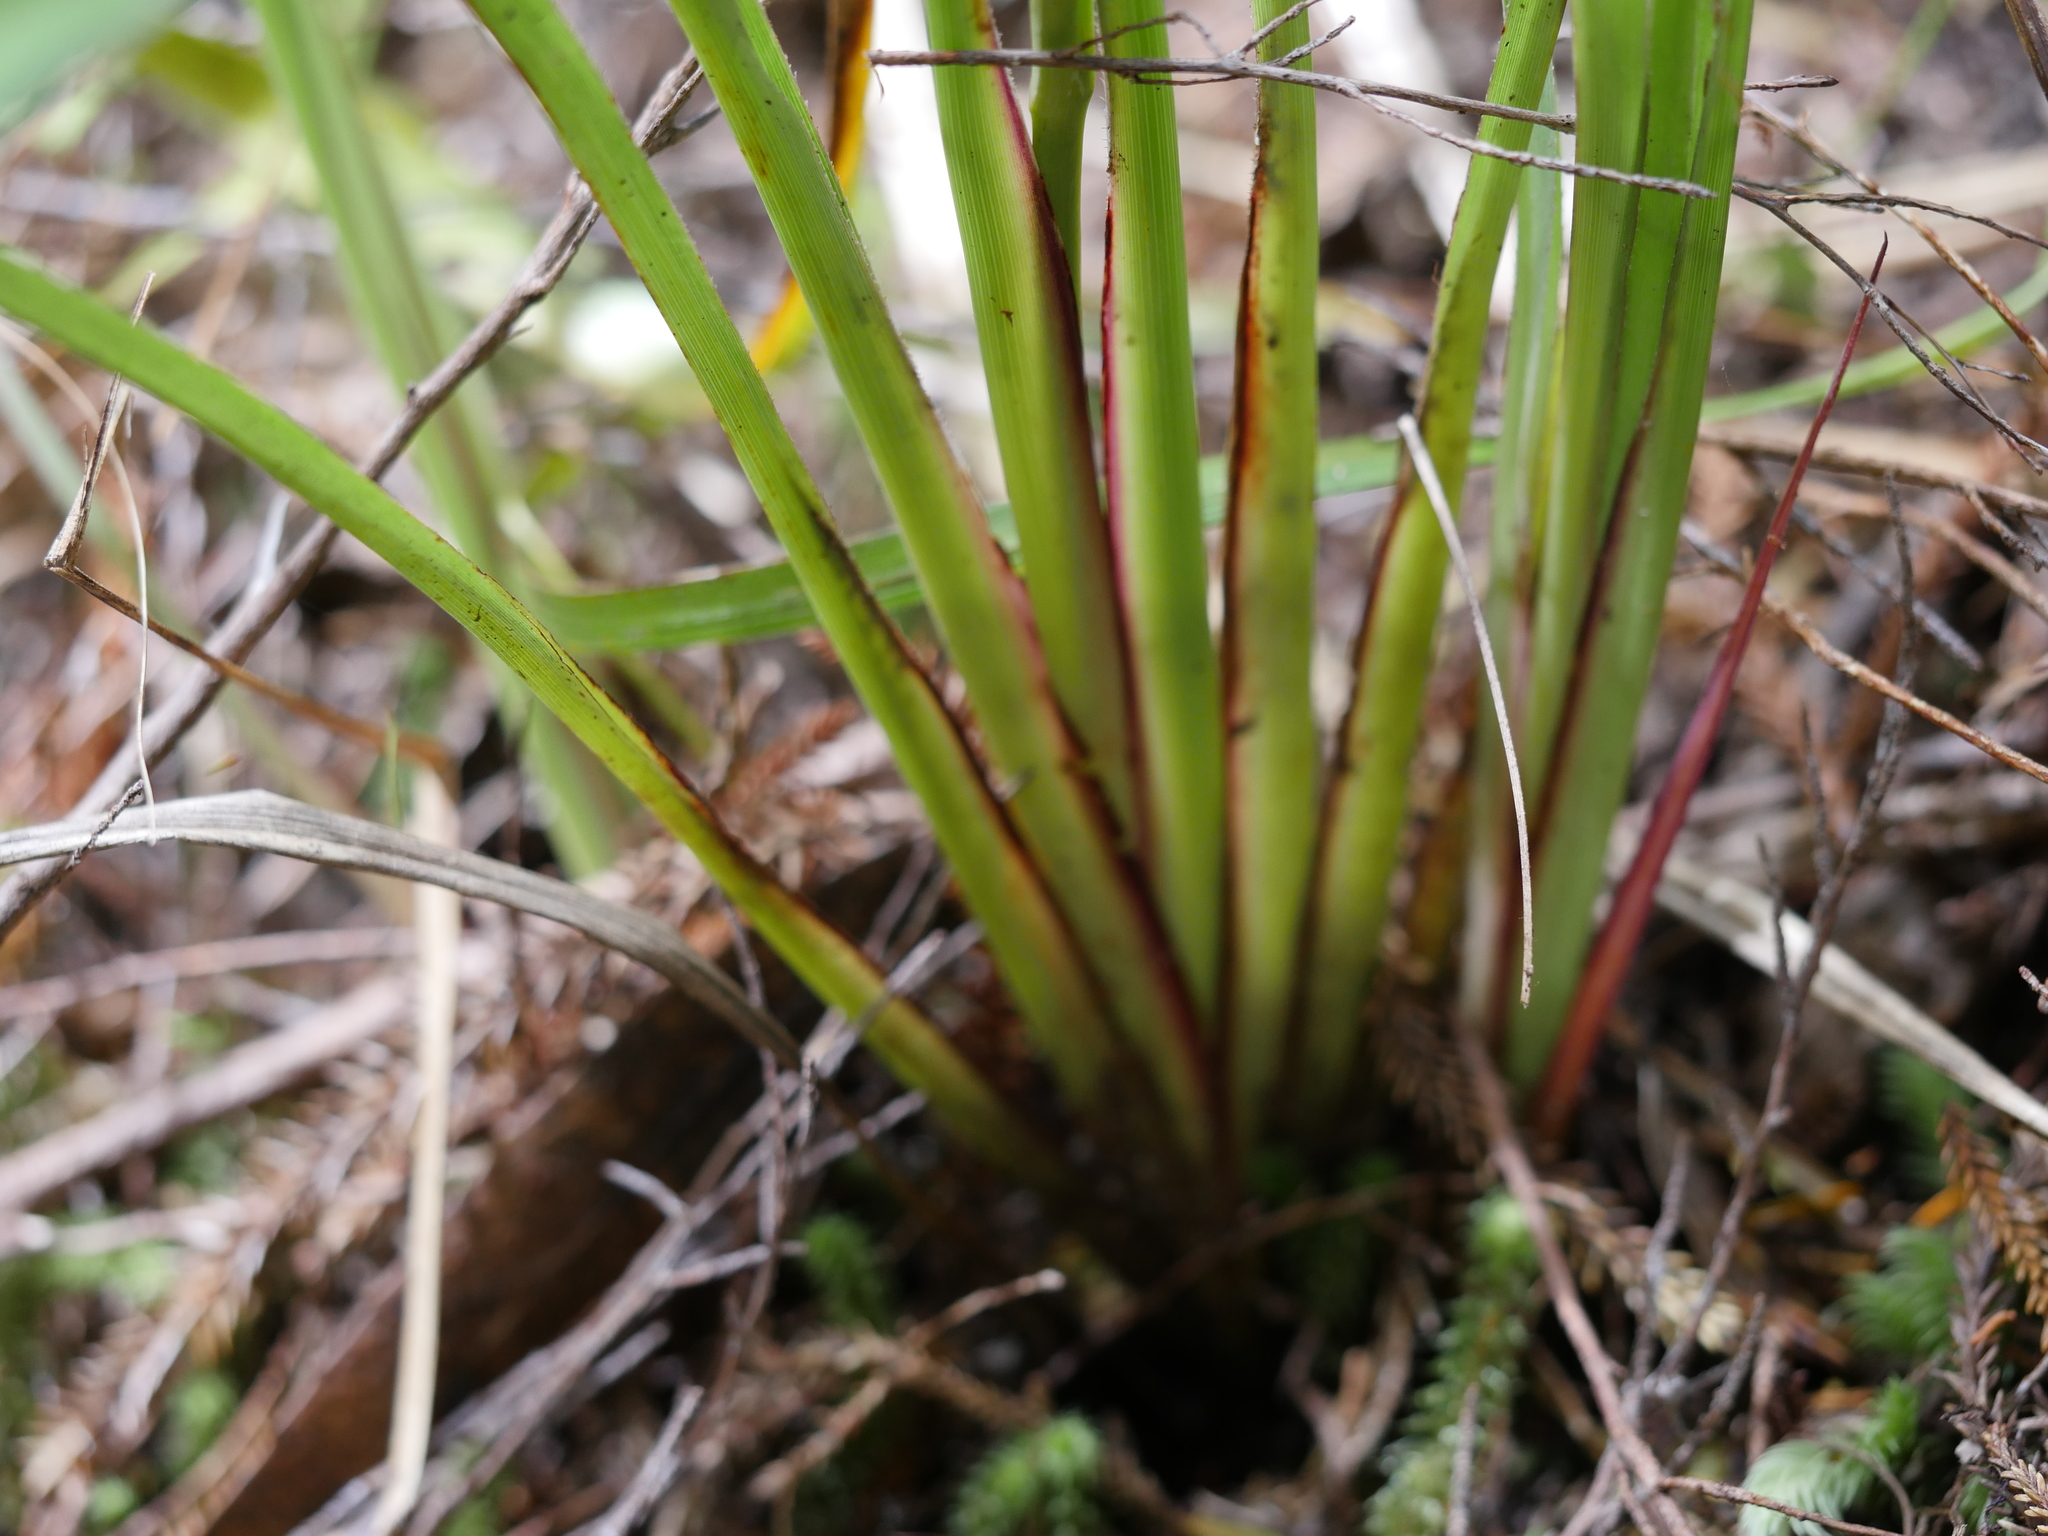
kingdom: Plantae
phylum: Tracheophyta
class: Liliopsida
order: Asparagales
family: Asphodelaceae
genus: Dianella
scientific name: Dianella nigra
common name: New zealand-blueberry
